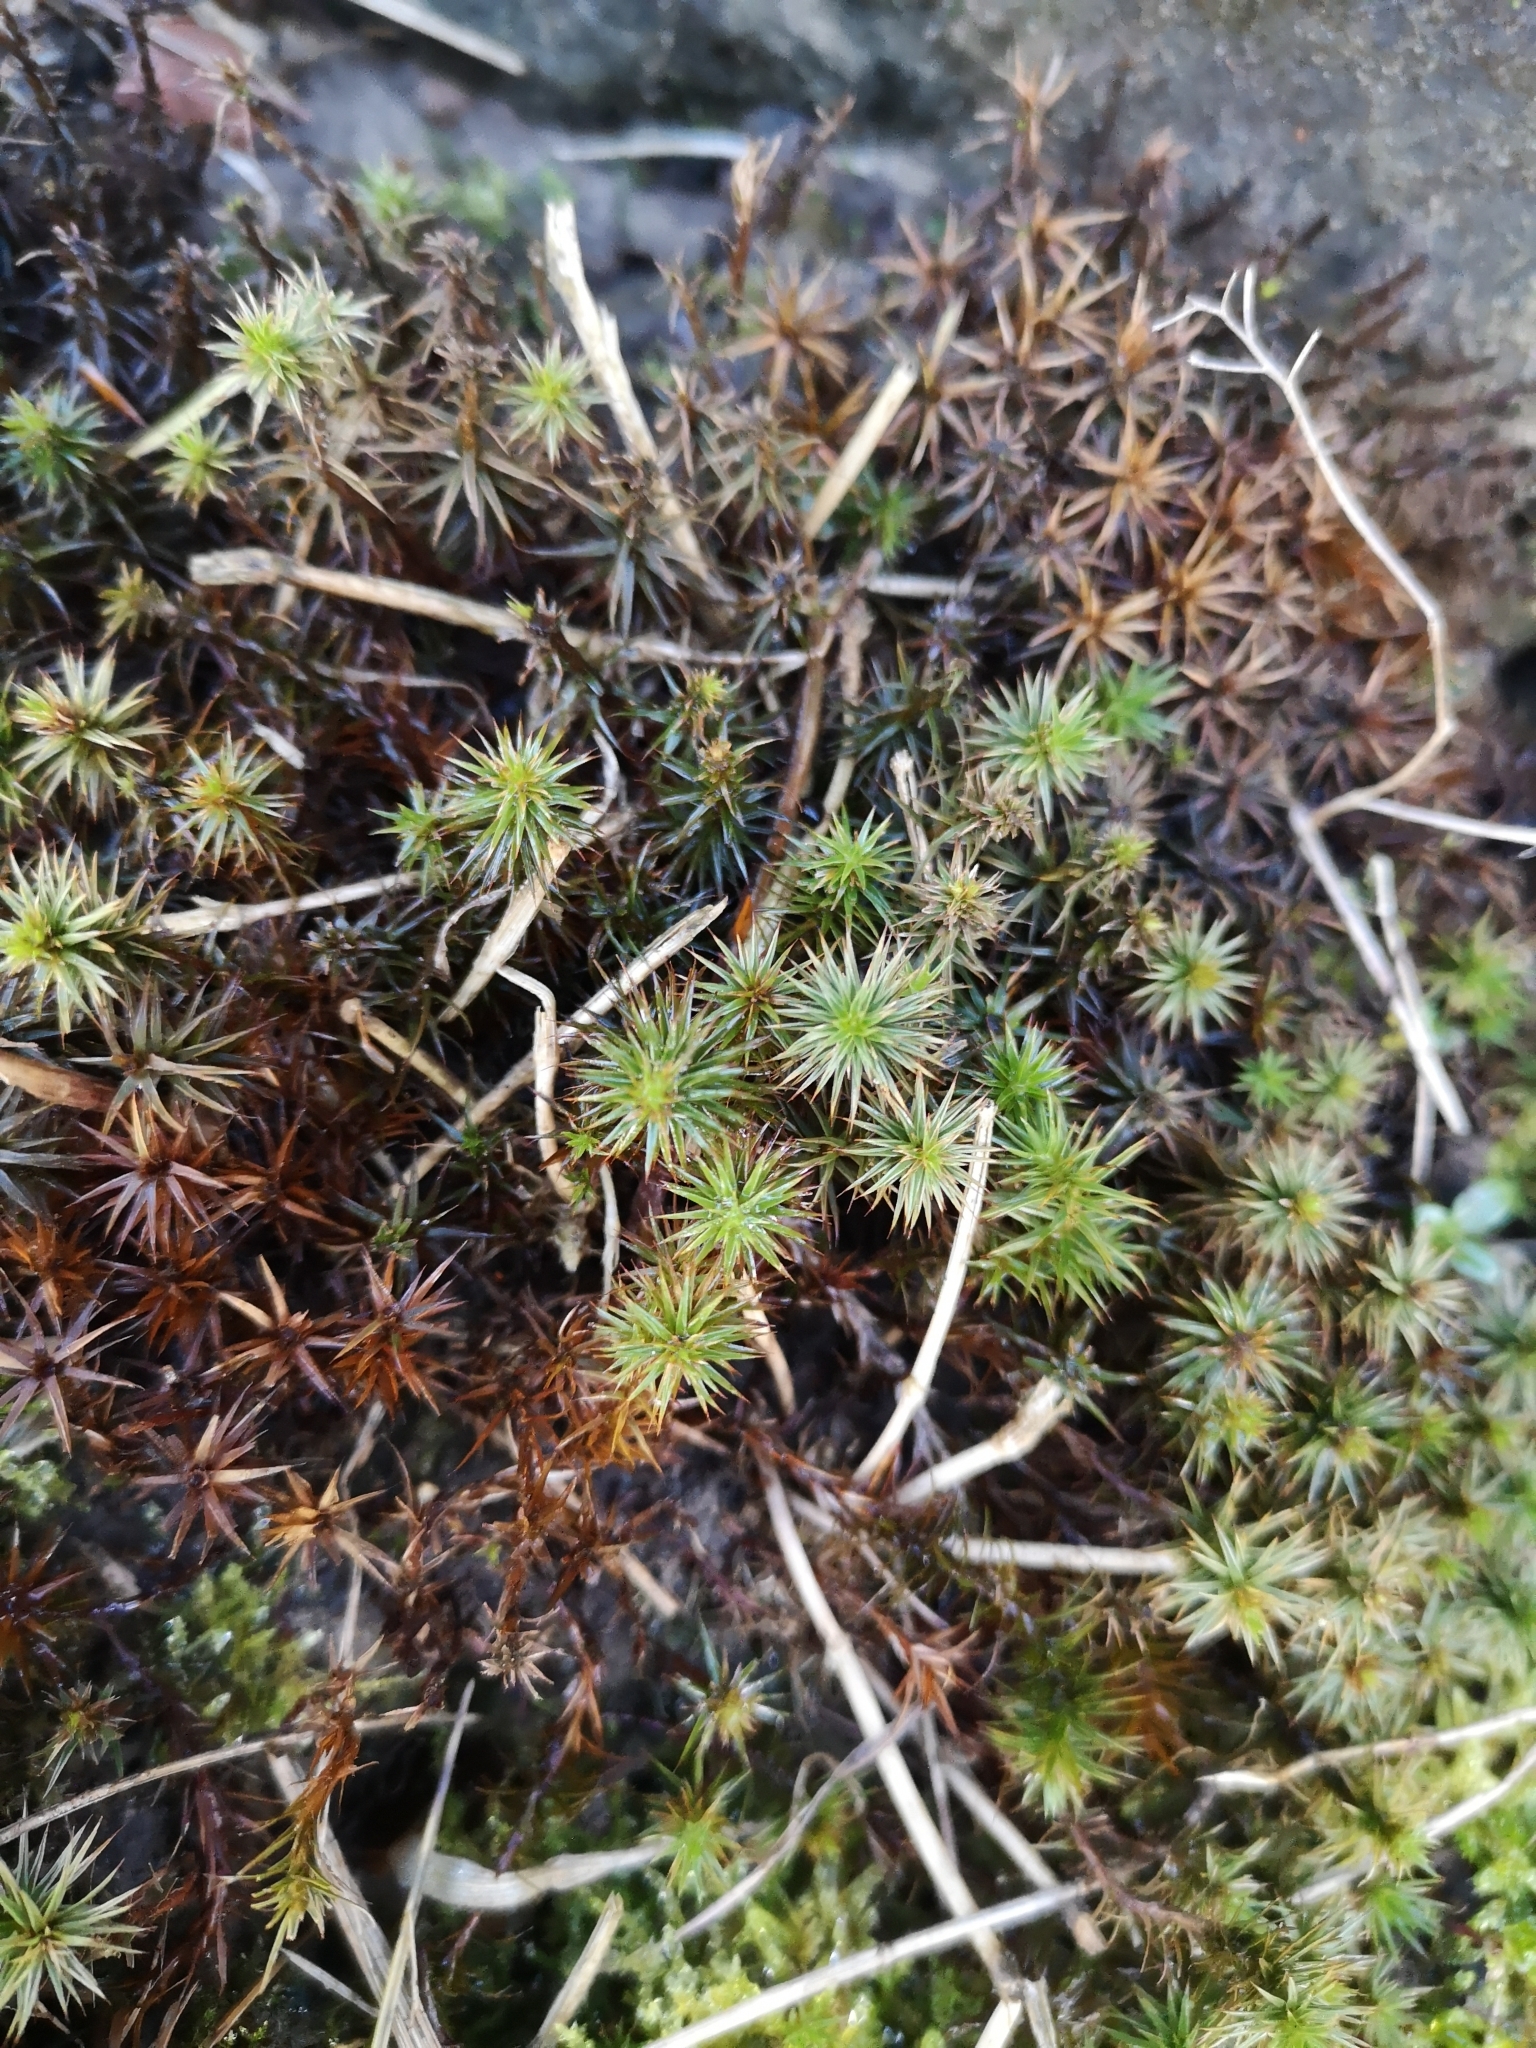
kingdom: Plantae
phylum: Bryophyta
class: Polytrichopsida
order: Polytrichales
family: Polytrichaceae
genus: Polytrichum
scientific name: Polytrichum juniperinum
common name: Juniper haircap moss
